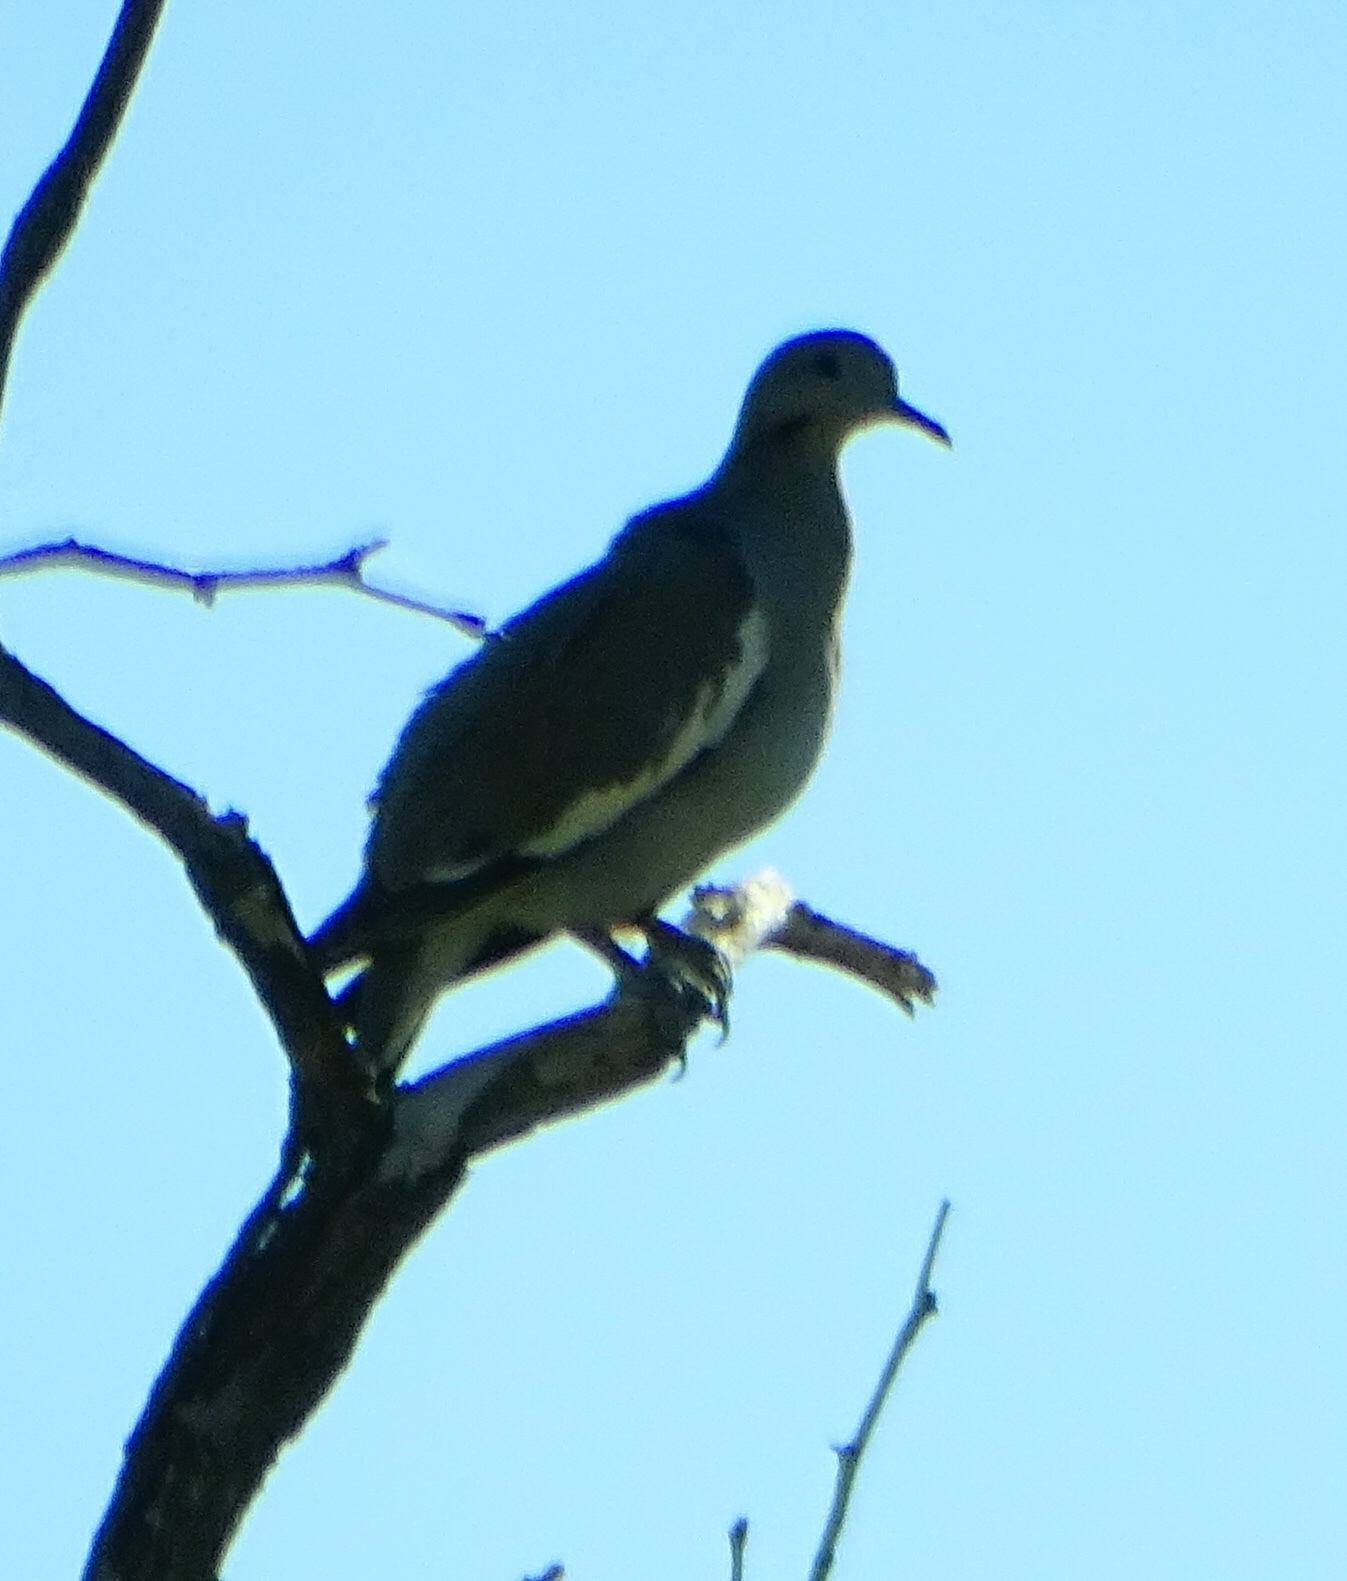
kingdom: Animalia
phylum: Chordata
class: Aves
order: Columbiformes
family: Columbidae
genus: Zenaida
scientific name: Zenaida asiatica
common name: White-winged dove
